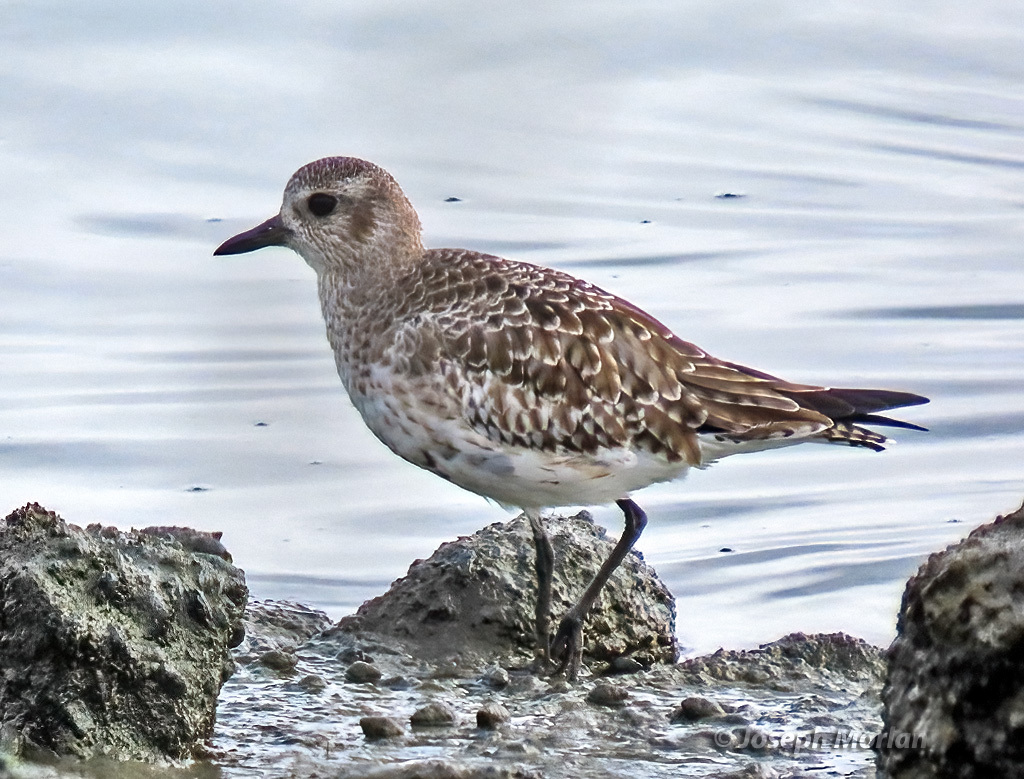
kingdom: Animalia
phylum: Chordata
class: Aves
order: Charadriiformes
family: Charadriidae
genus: Pluvialis
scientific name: Pluvialis squatarola
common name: Grey plover
